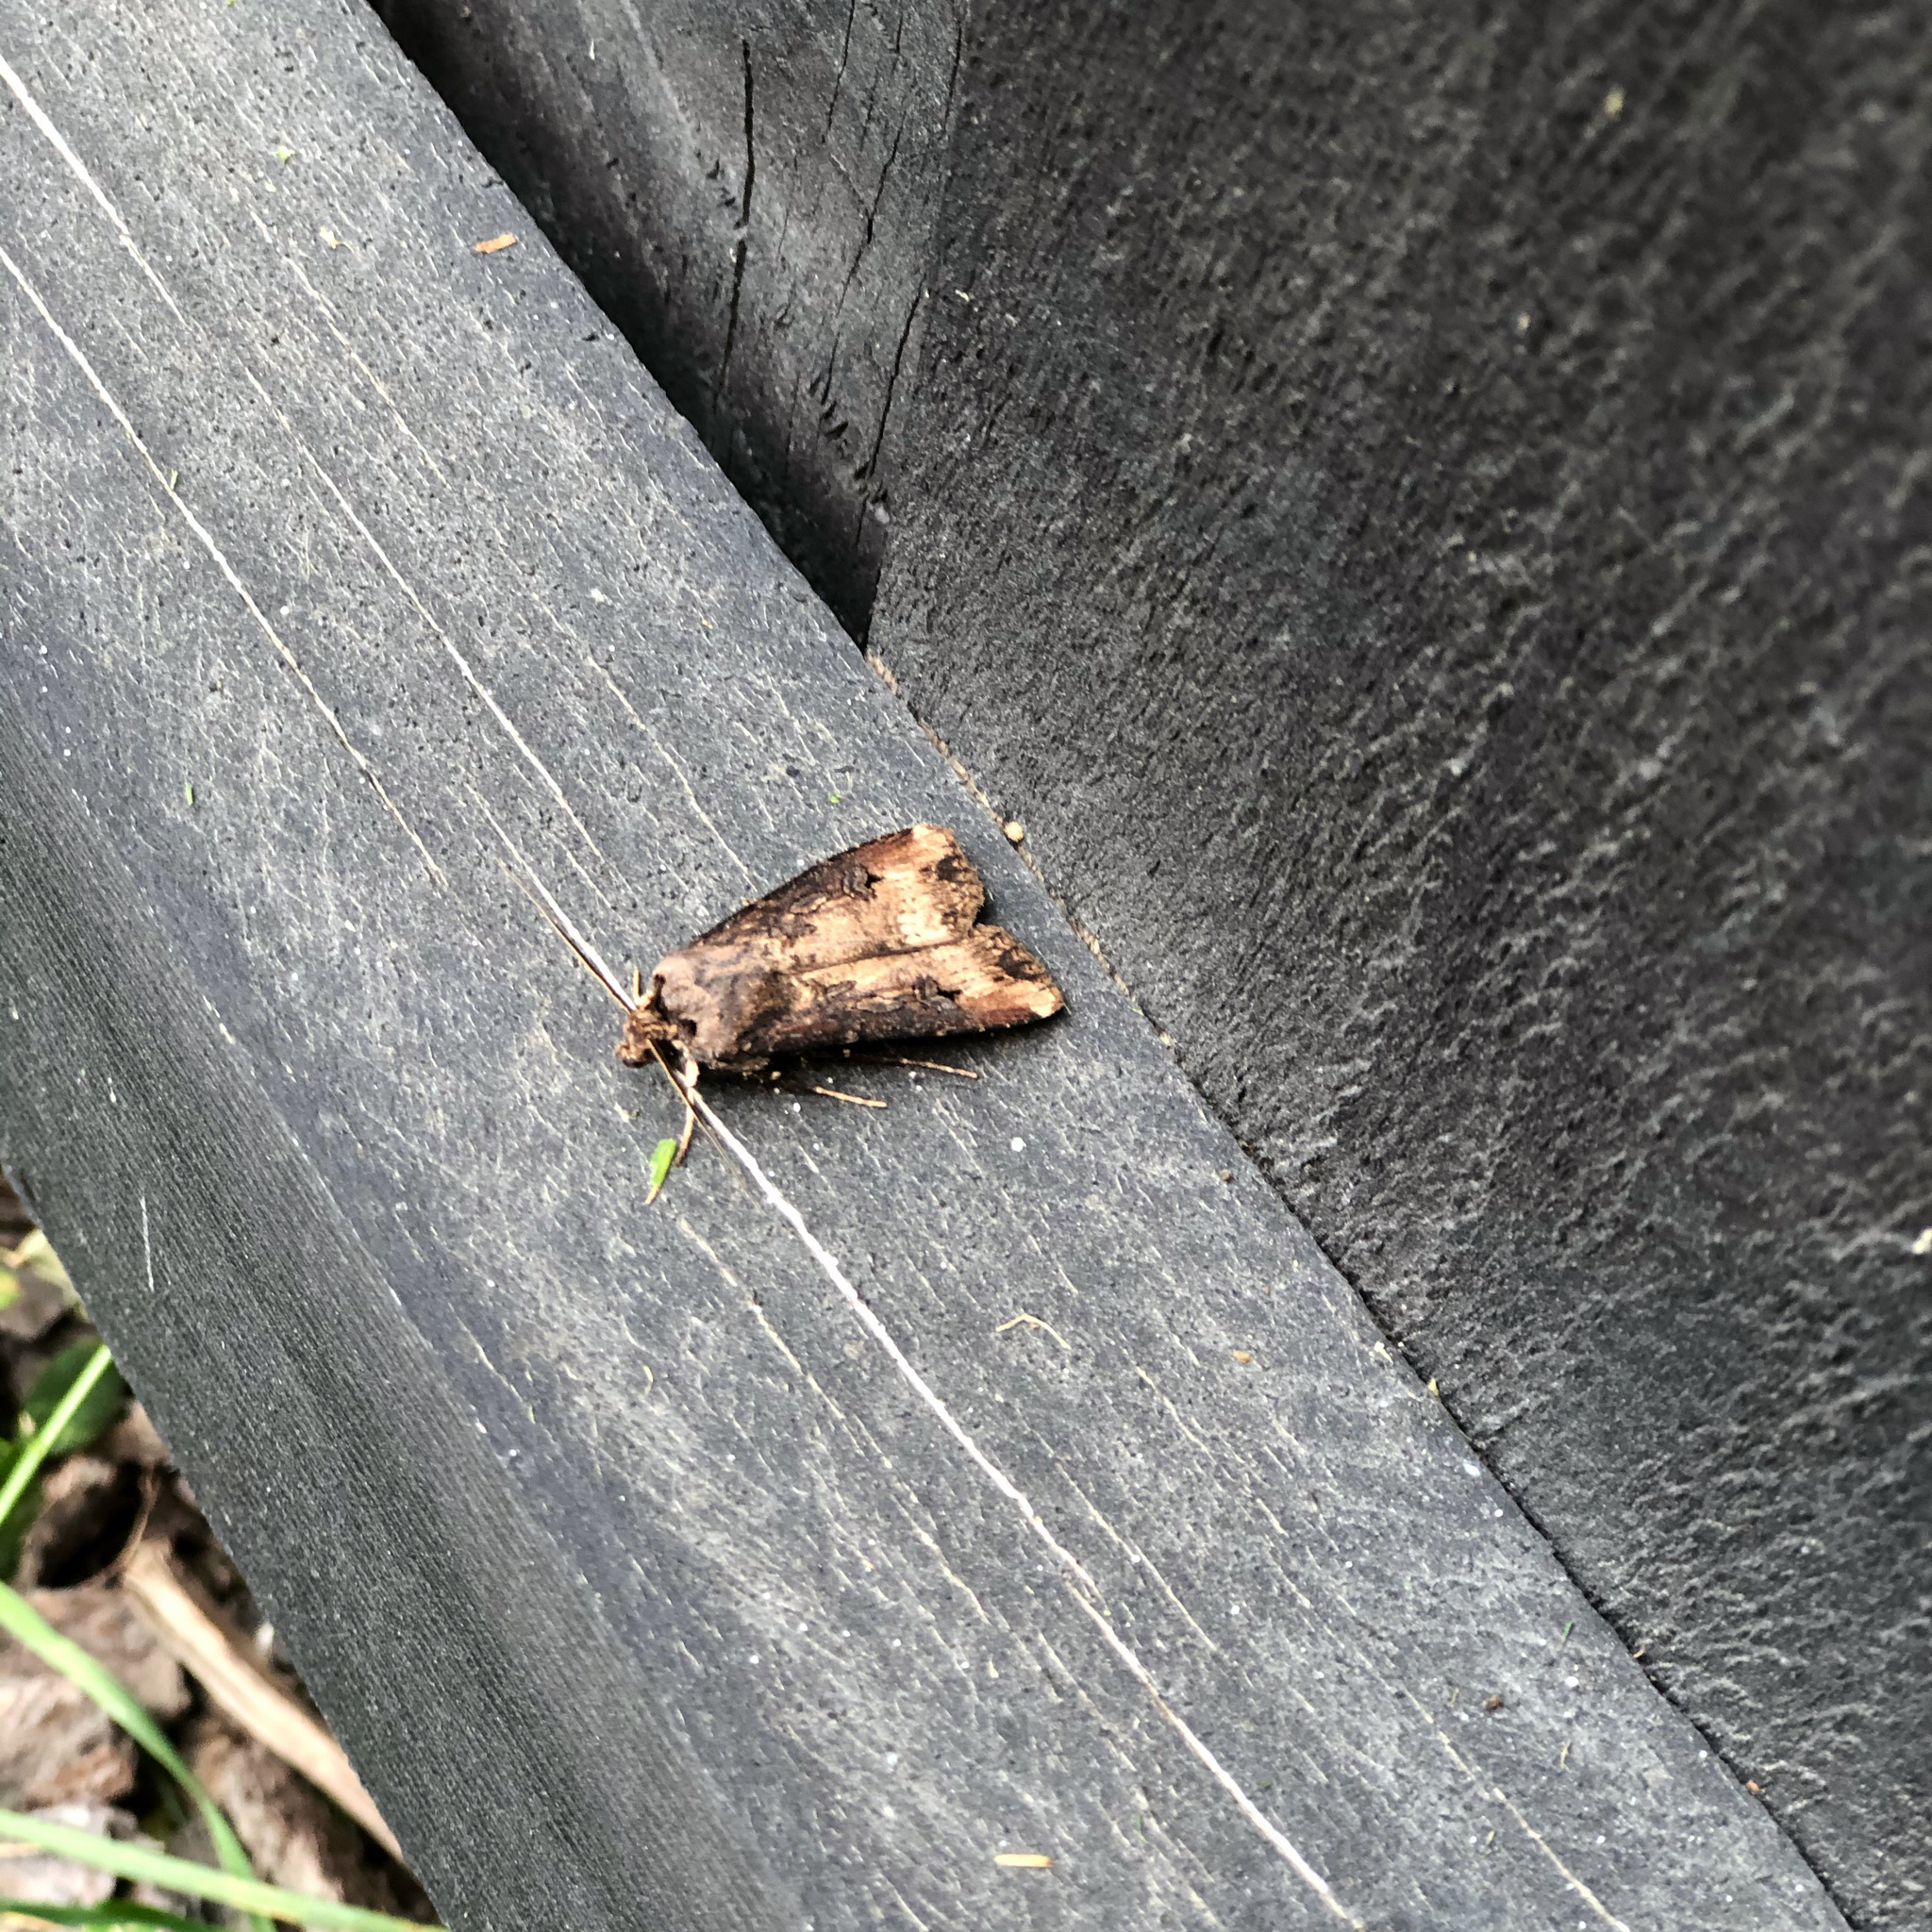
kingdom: Animalia
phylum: Arthropoda
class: Insecta
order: Lepidoptera
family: Noctuidae
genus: Agrotis
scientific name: Agrotis ipsilon
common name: Dark sword-grass
